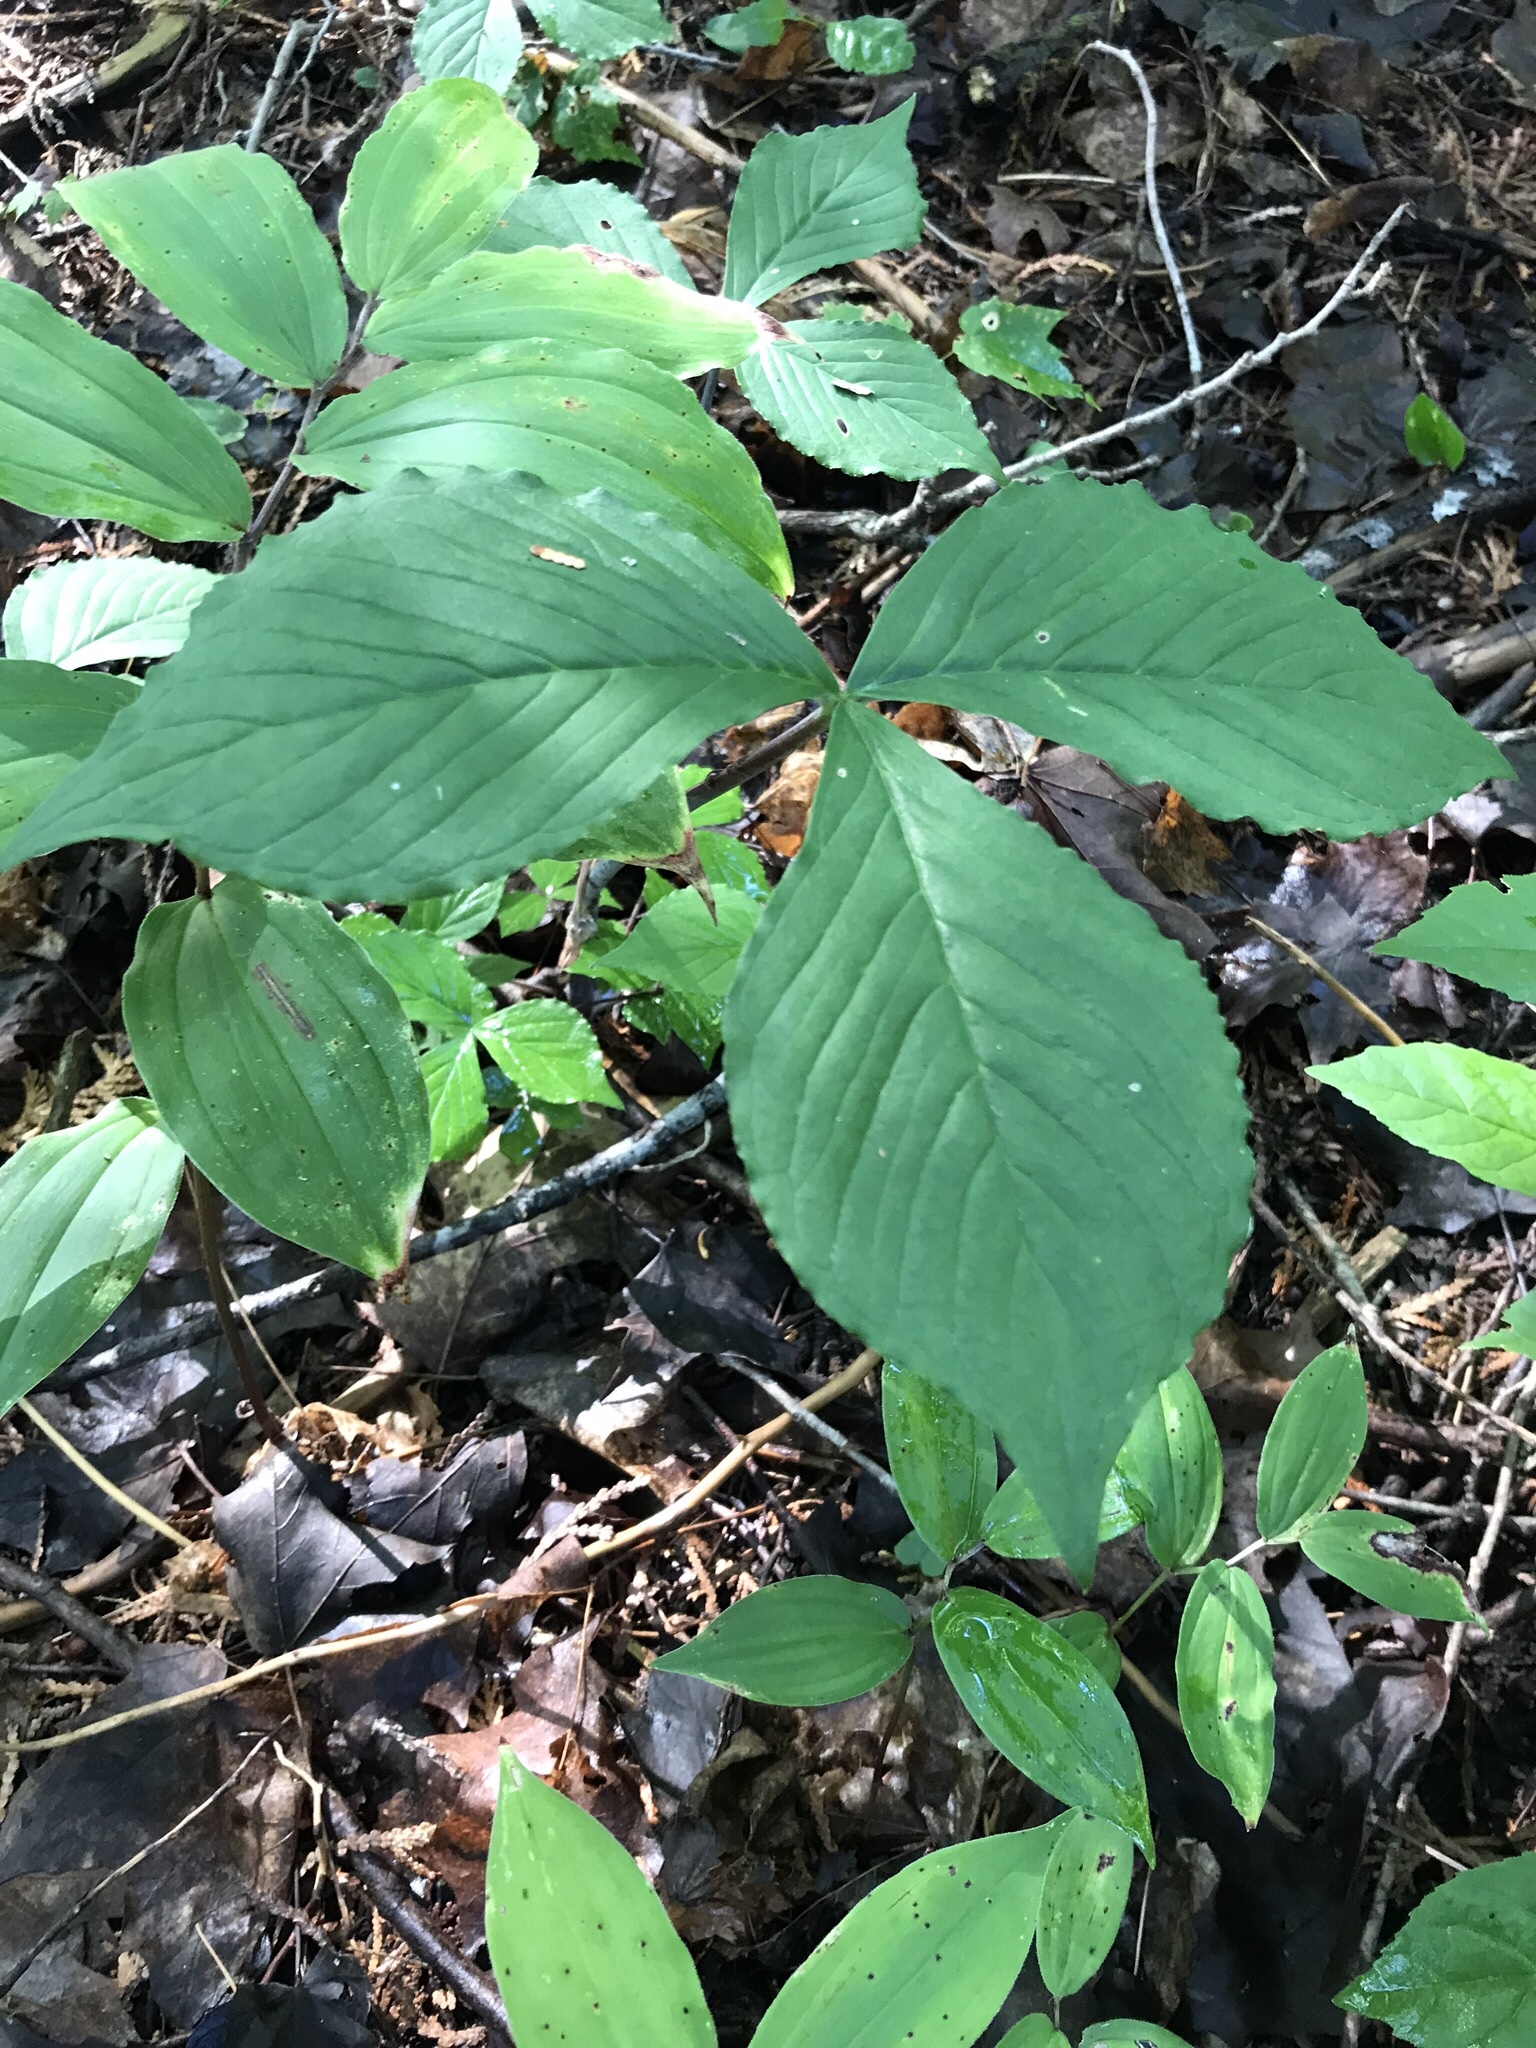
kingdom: Plantae
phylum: Tracheophyta
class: Liliopsida
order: Alismatales
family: Araceae
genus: Arisaema
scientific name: Arisaema triphyllum
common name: Jack-in-the-pulpit
